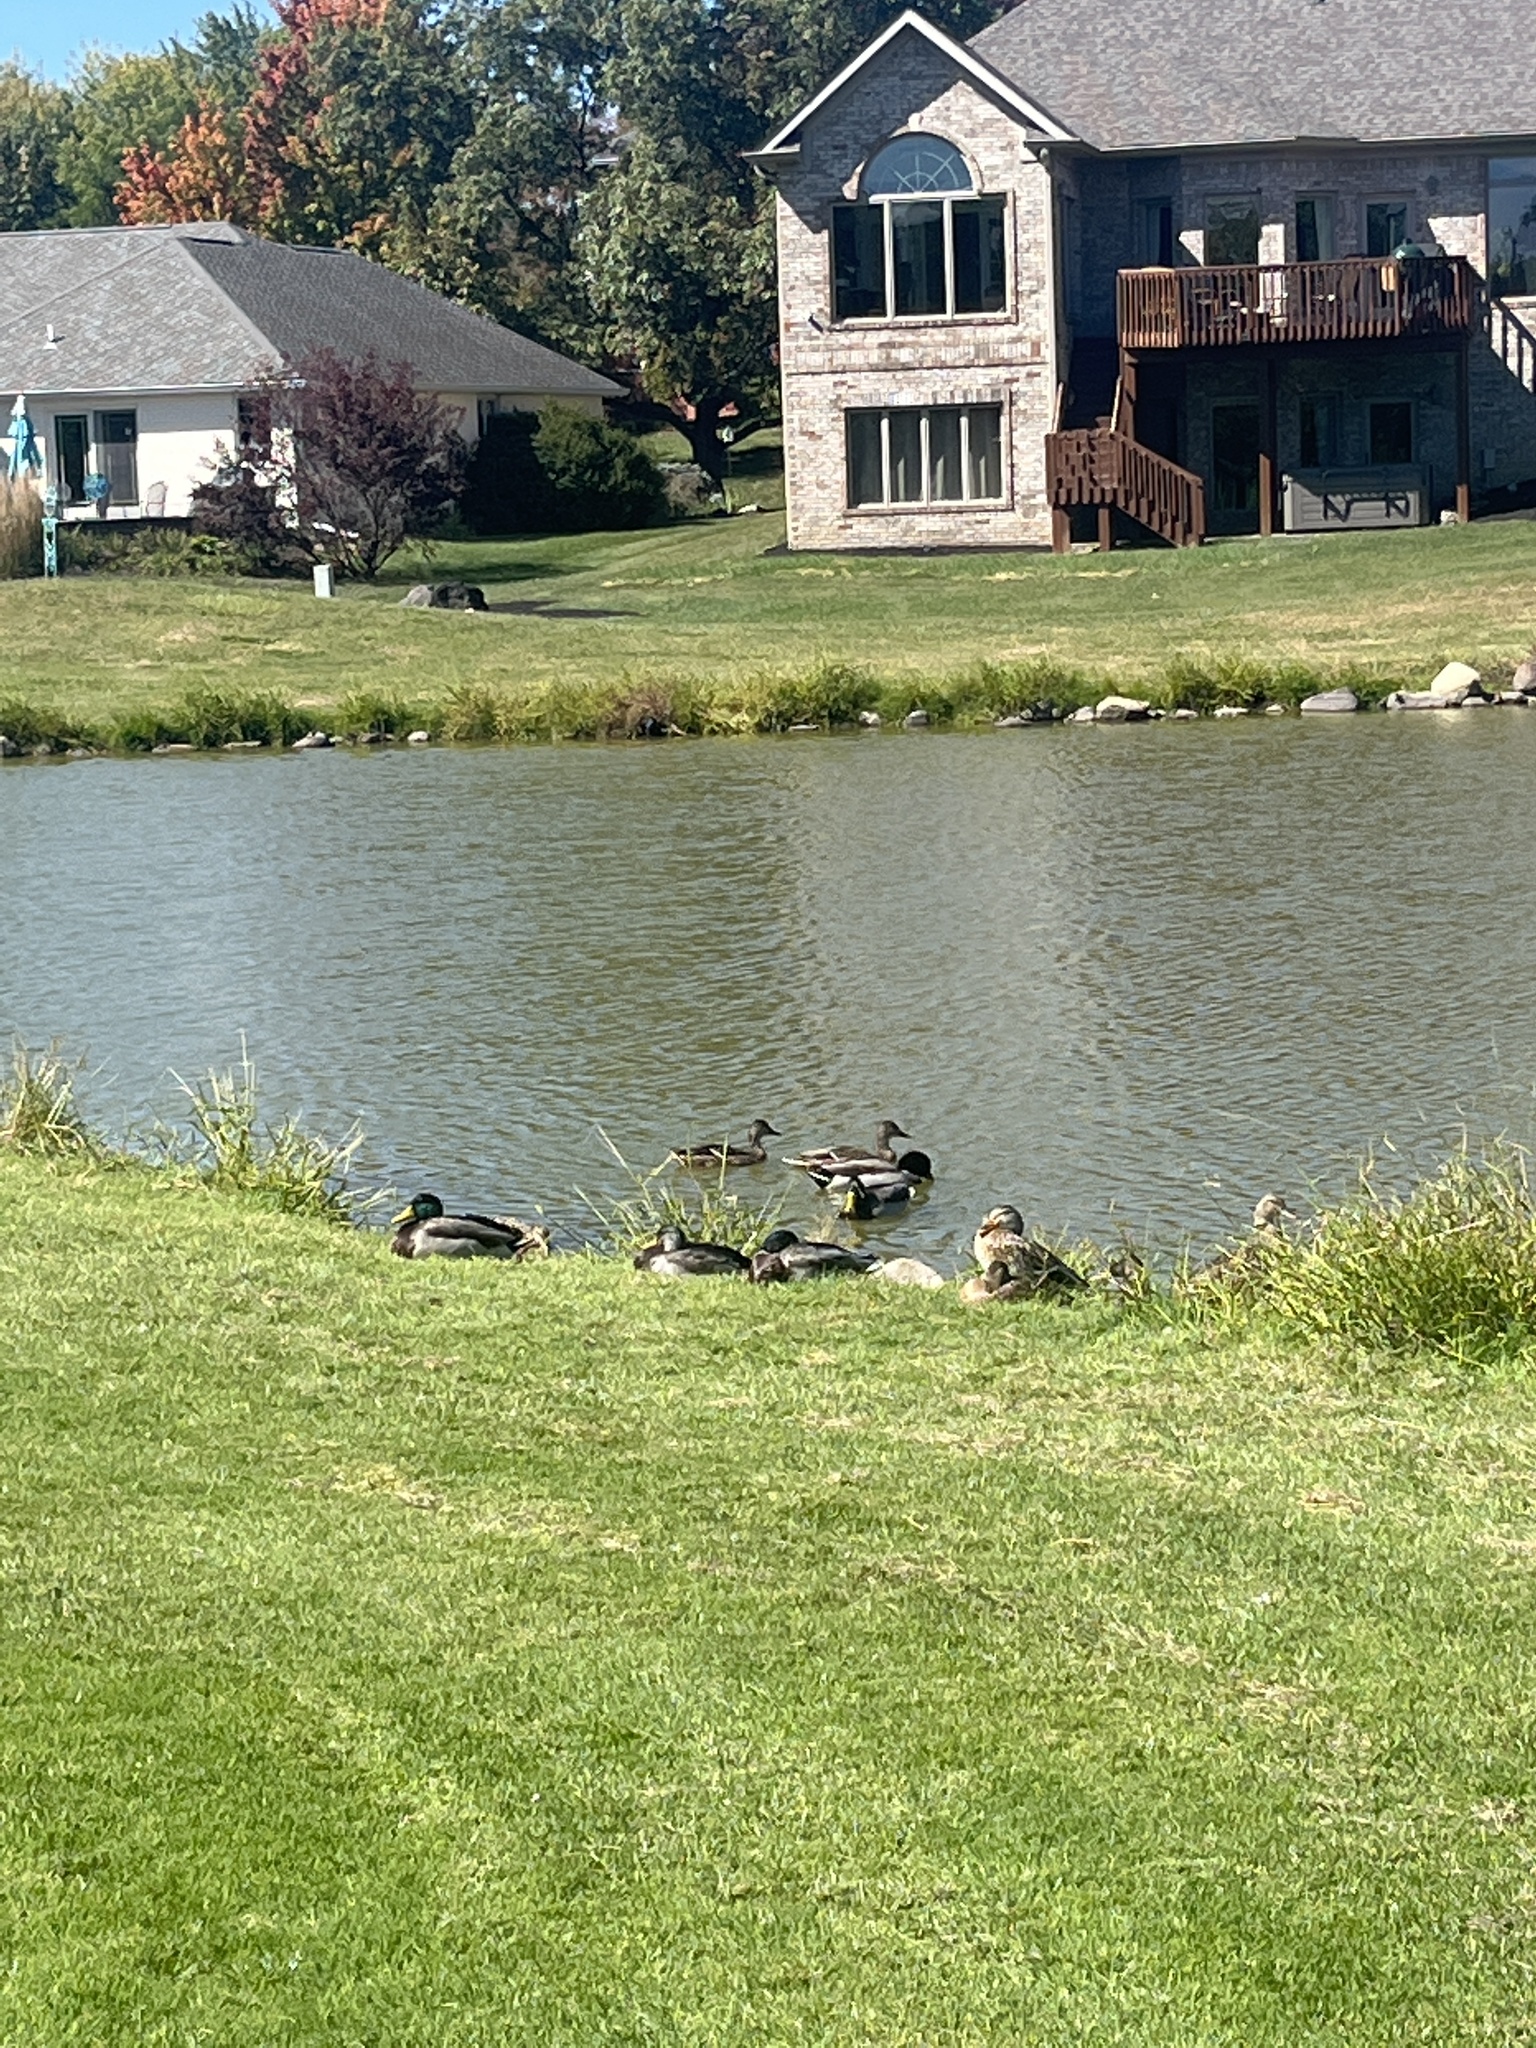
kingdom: Animalia
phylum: Chordata
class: Aves
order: Anseriformes
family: Anatidae
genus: Anas
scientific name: Anas platyrhynchos
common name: Mallard
